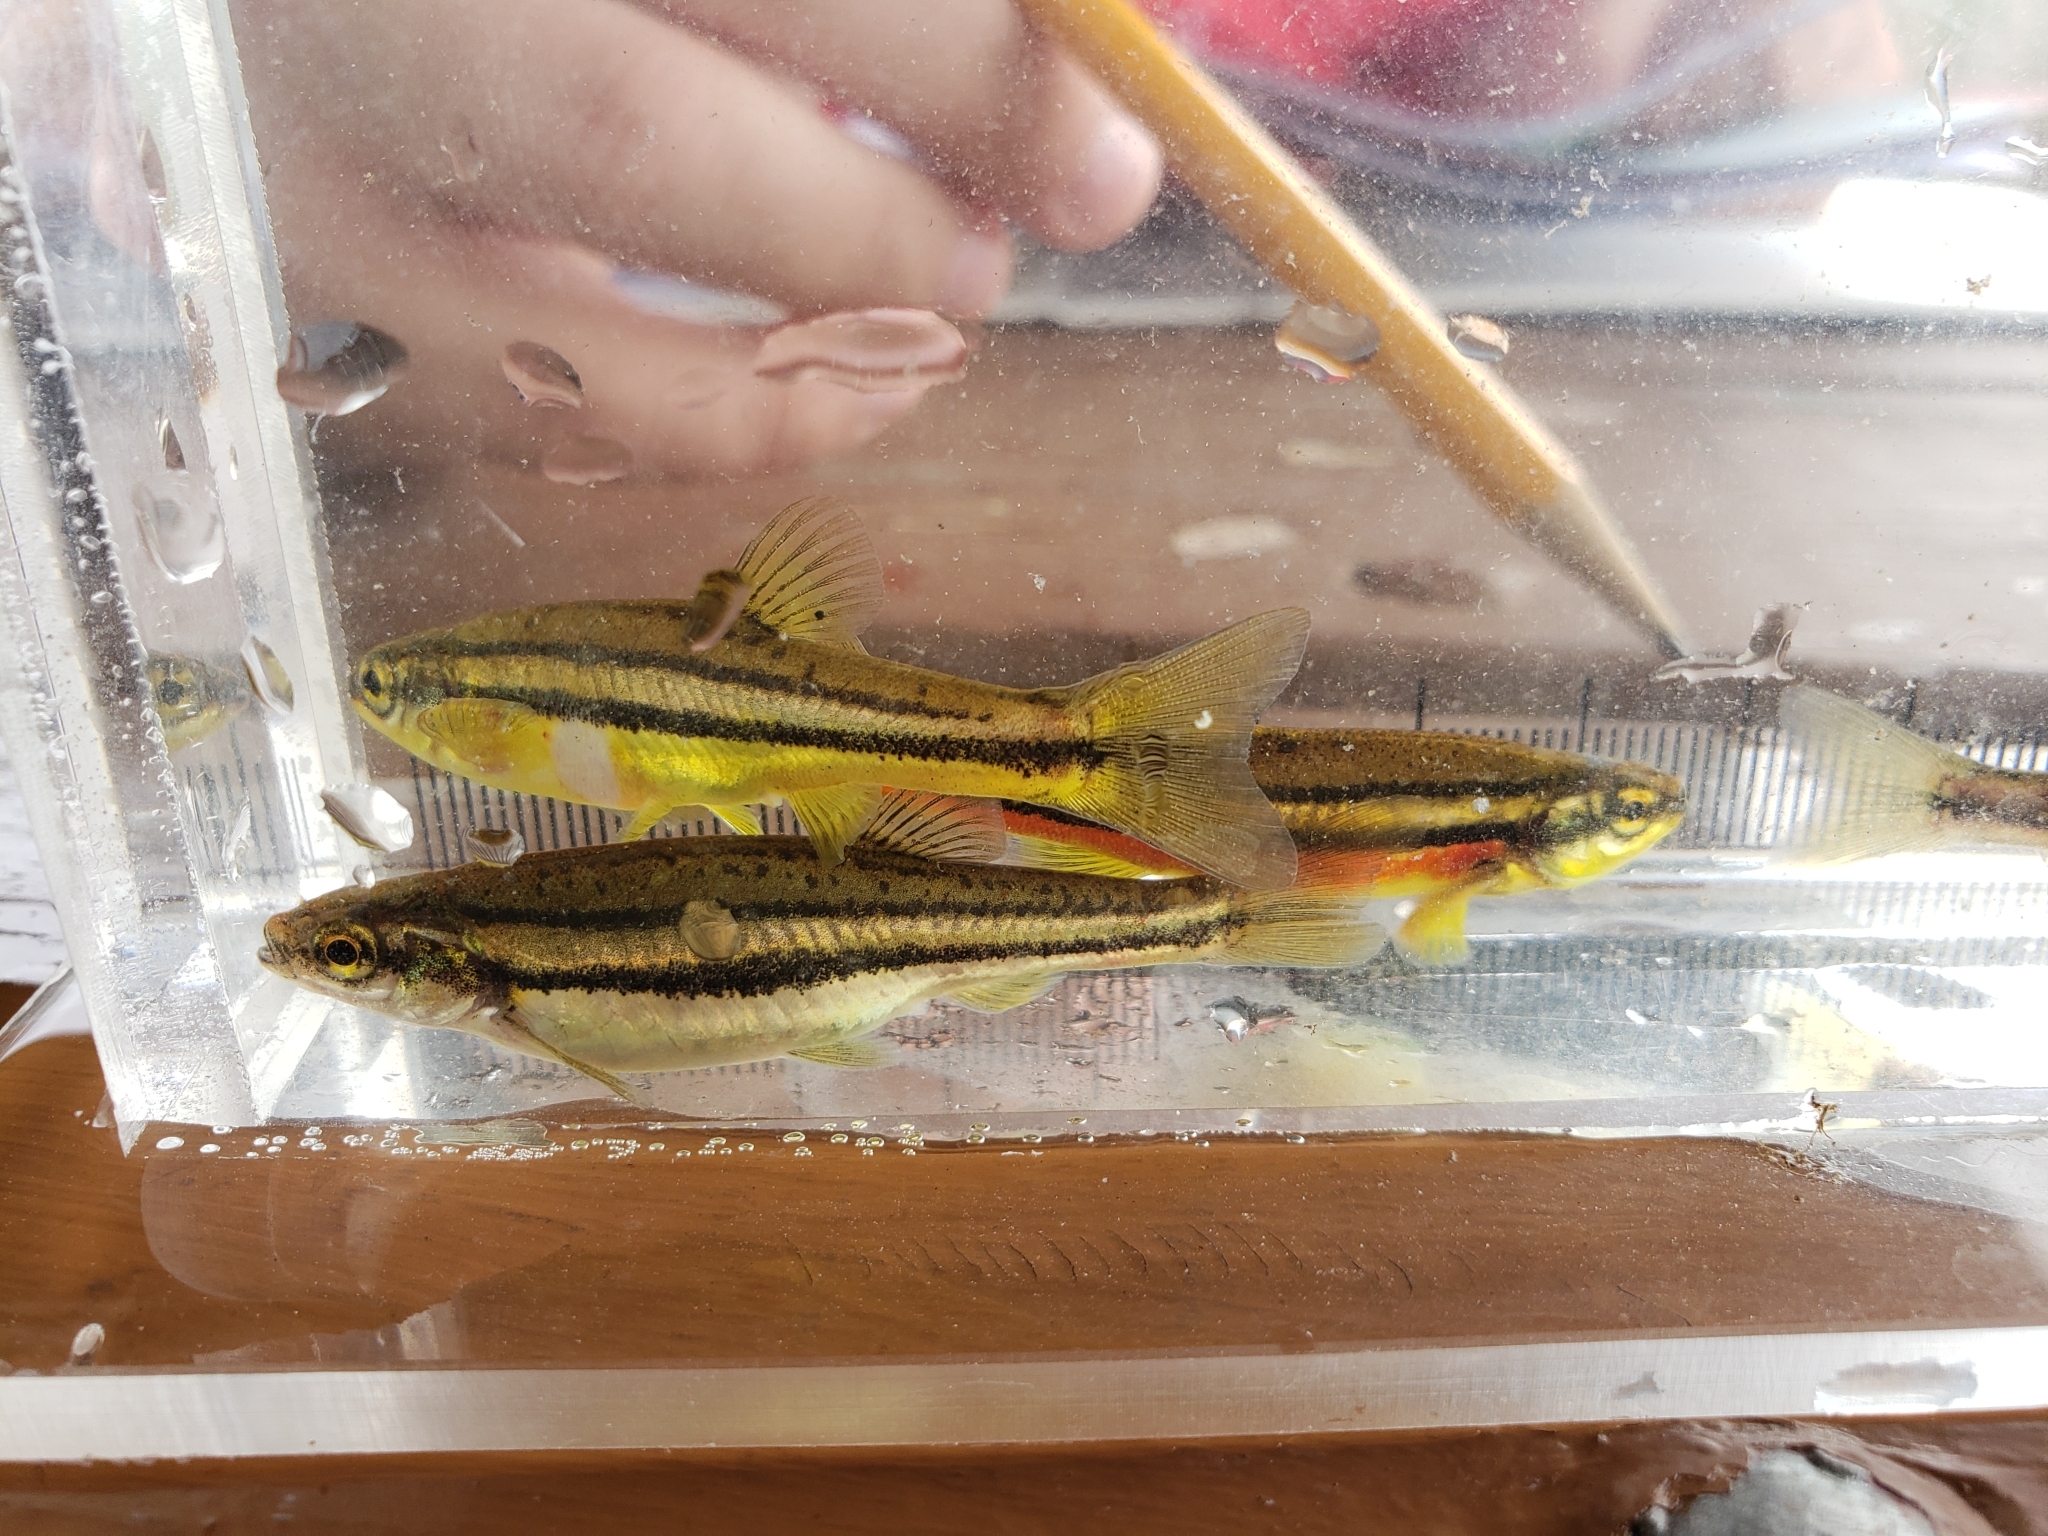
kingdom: Animalia
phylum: Chordata
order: Cypriniformes
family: Cyprinidae
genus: Chrosomus
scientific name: Chrosomus eos
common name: Northern redbelly dace
